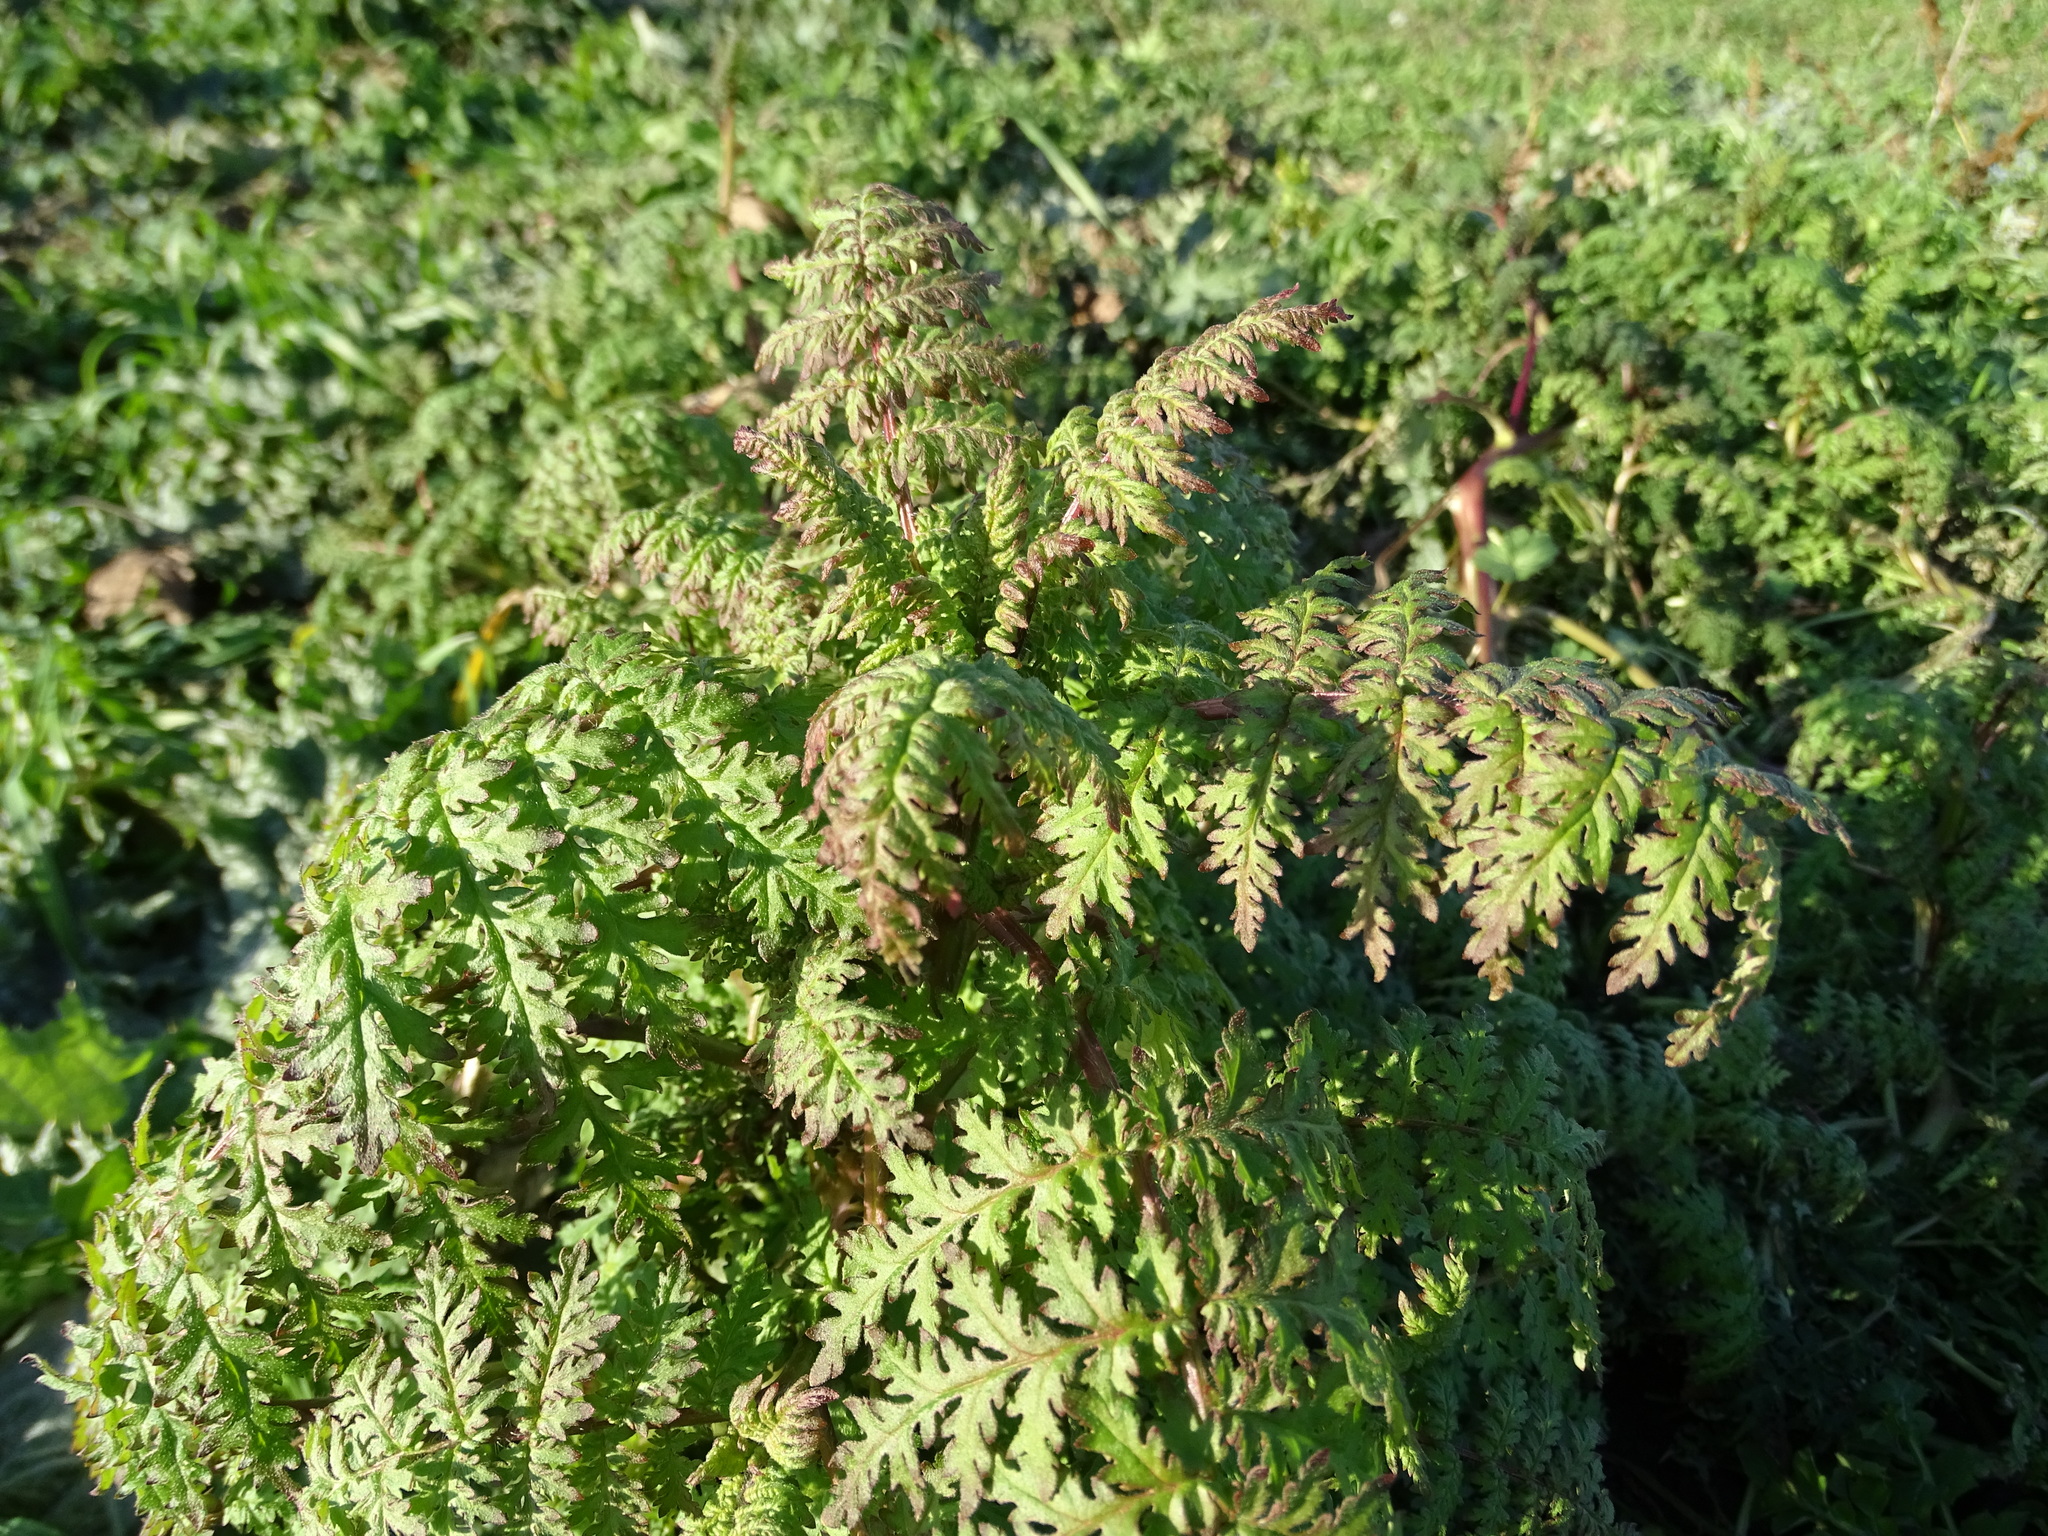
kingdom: Plantae
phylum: Tracheophyta
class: Magnoliopsida
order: Boraginales
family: Hydrophyllaceae
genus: Phacelia
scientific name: Phacelia tanacetifolia
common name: Phacelia
